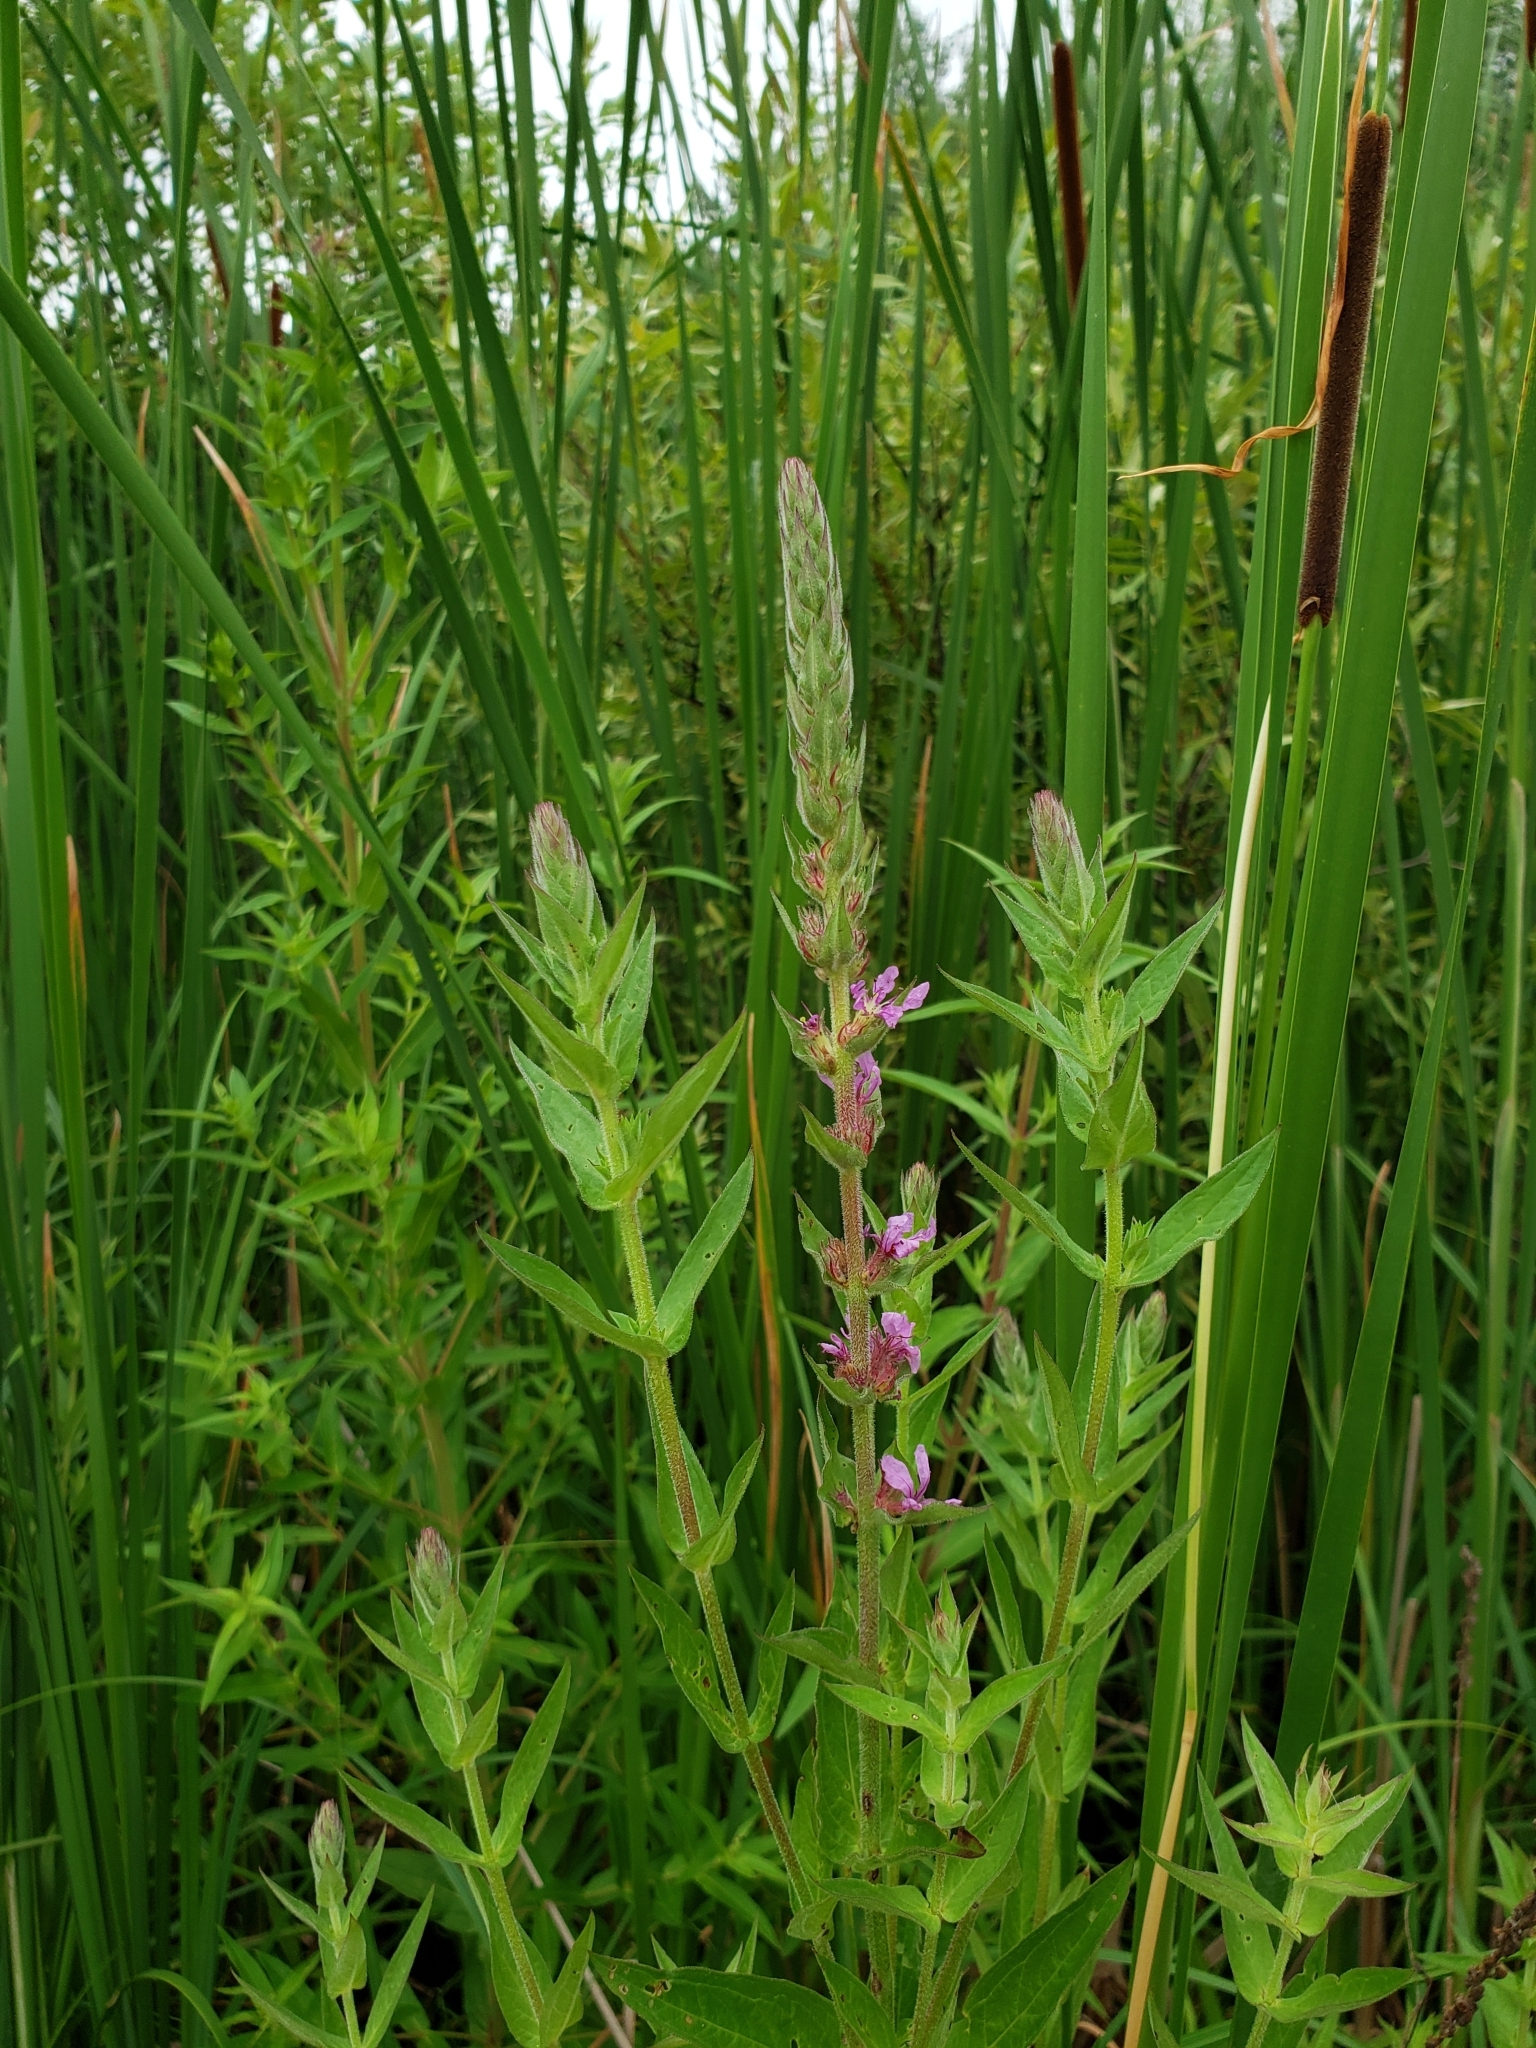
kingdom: Plantae
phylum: Tracheophyta
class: Magnoliopsida
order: Myrtales
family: Lythraceae
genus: Lythrum
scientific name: Lythrum salicaria
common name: Purple loosestrife
